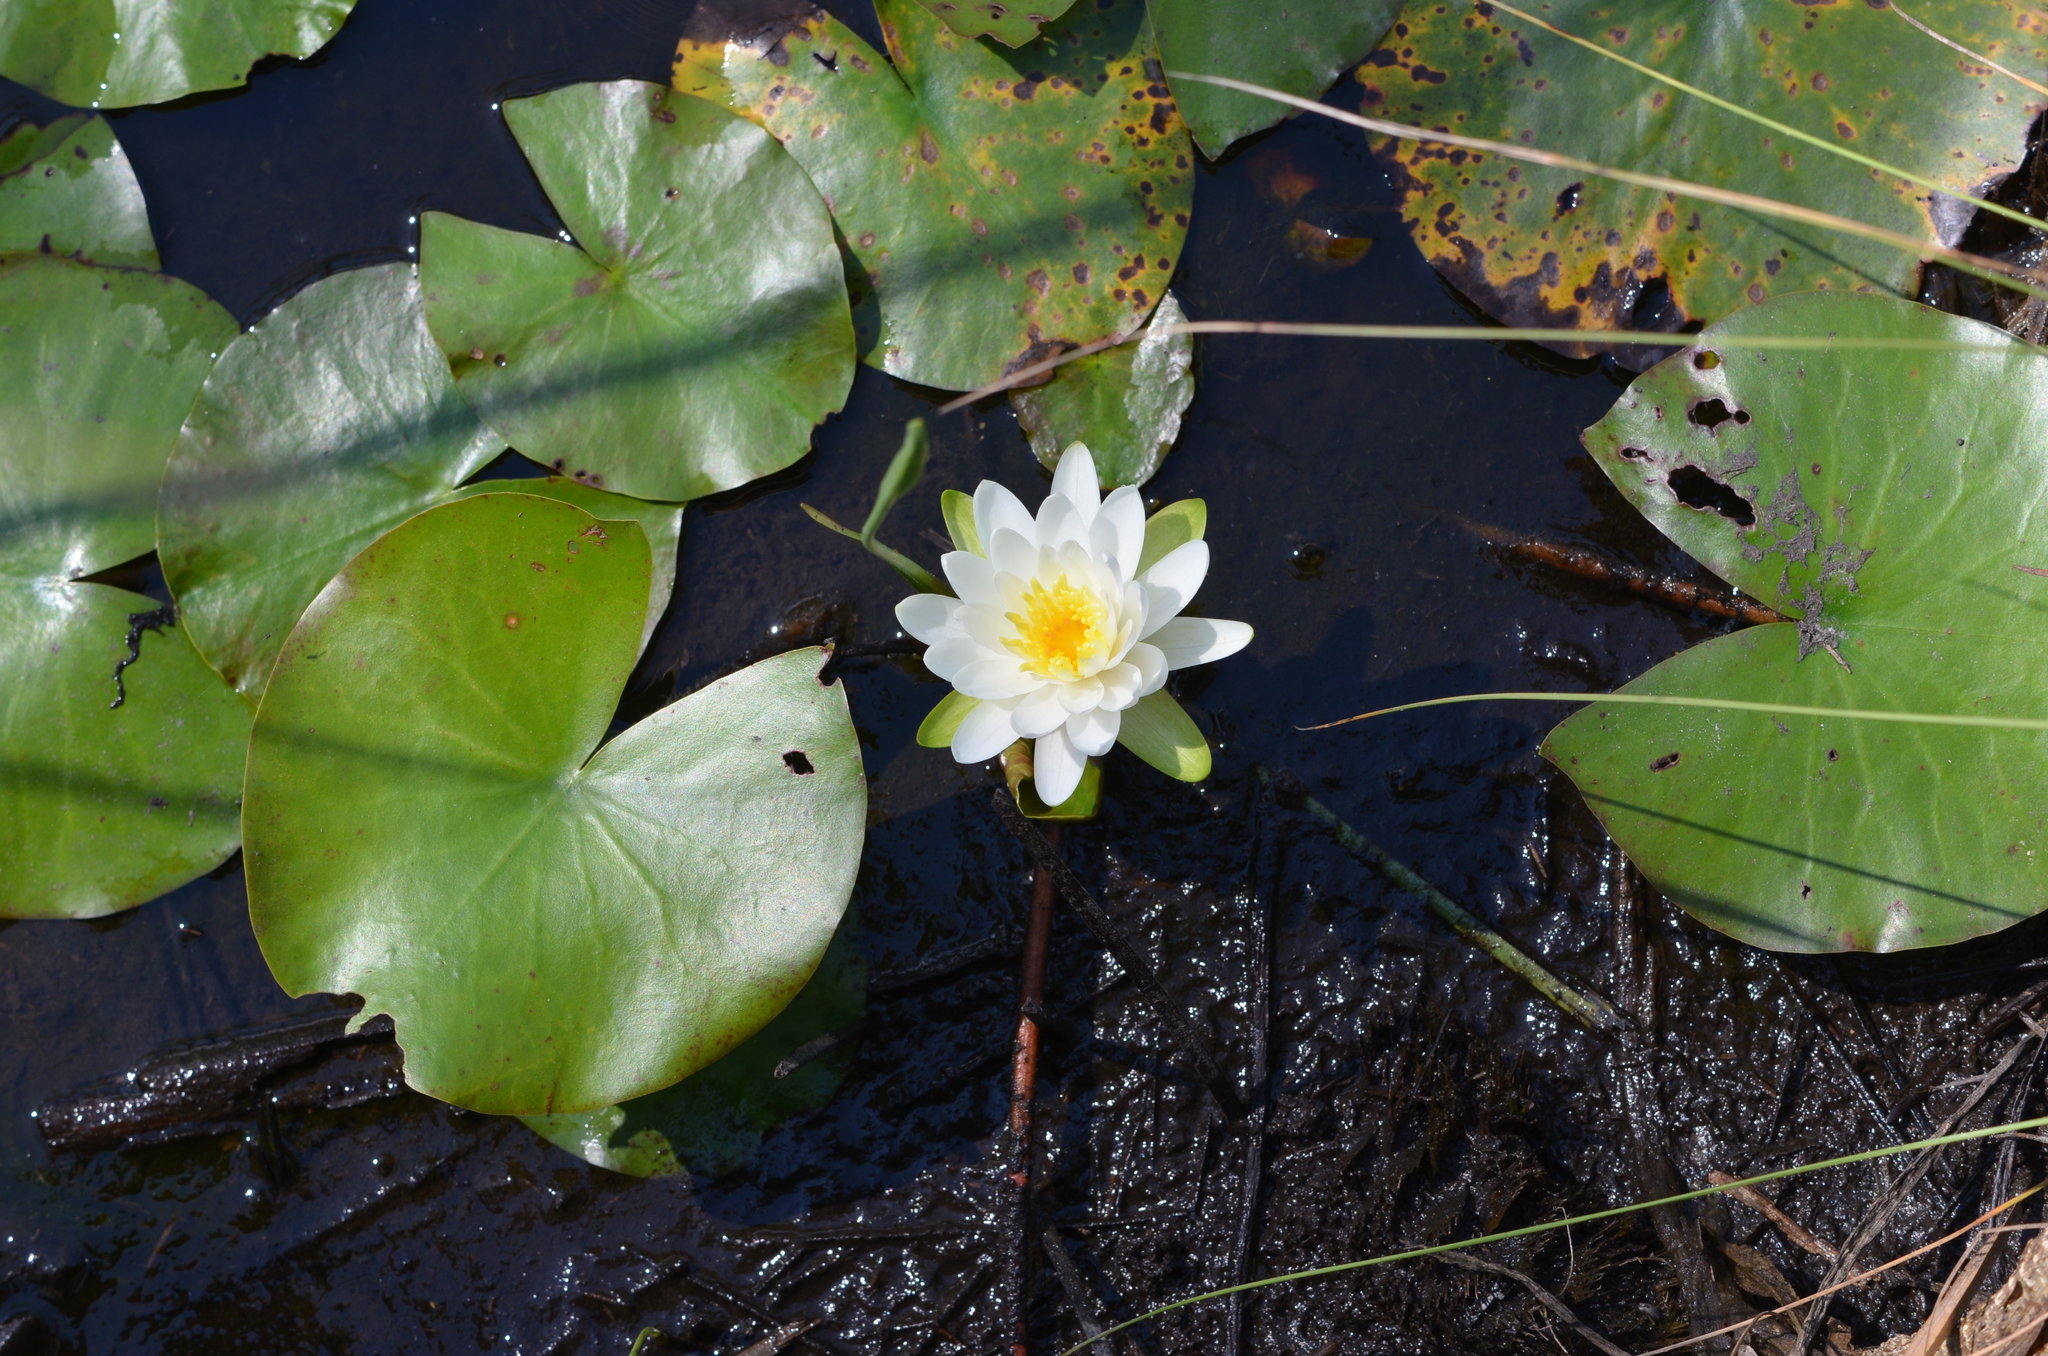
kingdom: Plantae
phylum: Tracheophyta
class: Magnoliopsida
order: Nymphaeales
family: Nymphaeaceae
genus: Nymphaea
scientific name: Nymphaea odorata
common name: Fragrant water-lily
